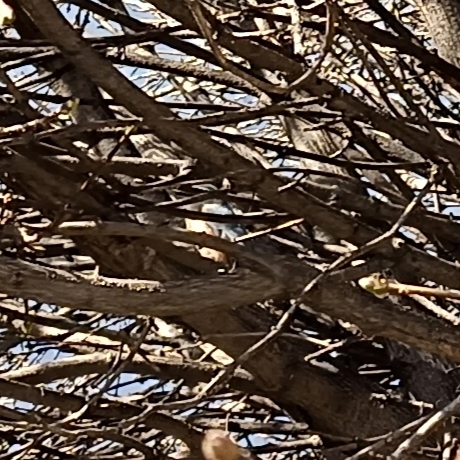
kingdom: Animalia
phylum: Chordata
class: Aves
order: Passeriformes
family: Sittidae
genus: Sitta
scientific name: Sitta europaea
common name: Eurasian nuthatch
